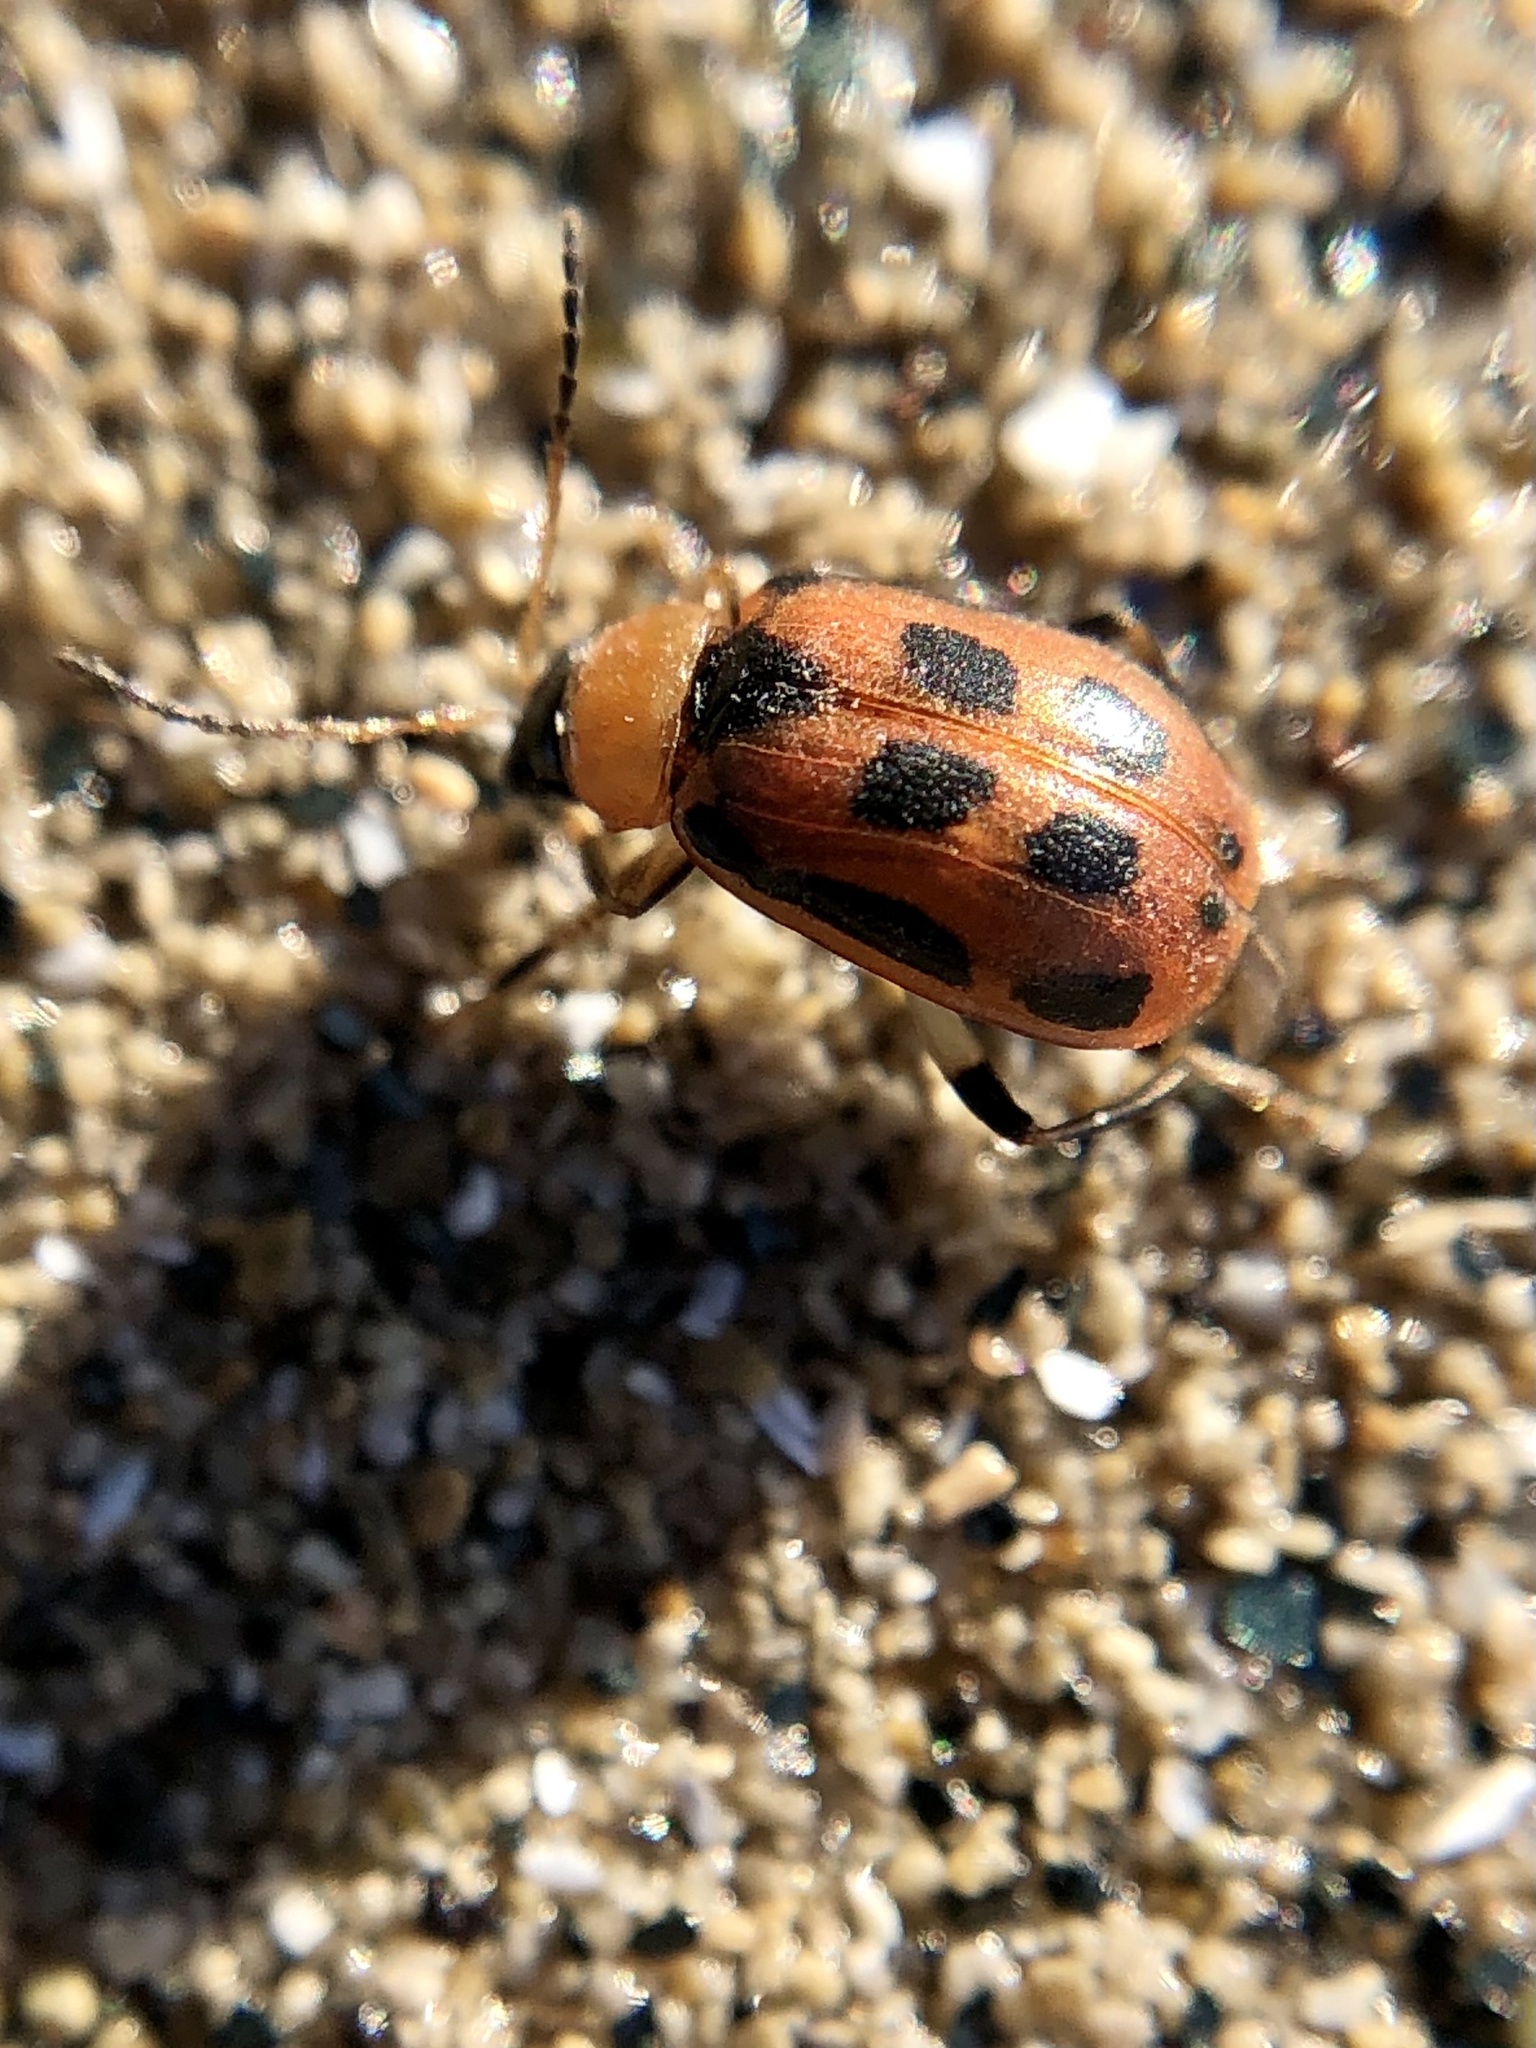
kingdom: Animalia
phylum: Arthropoda
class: Insecta
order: Coleoptera
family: Chrysomelidae
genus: Cerotoma
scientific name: Cerotoma trifurcata
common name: Bean leaf beetle
